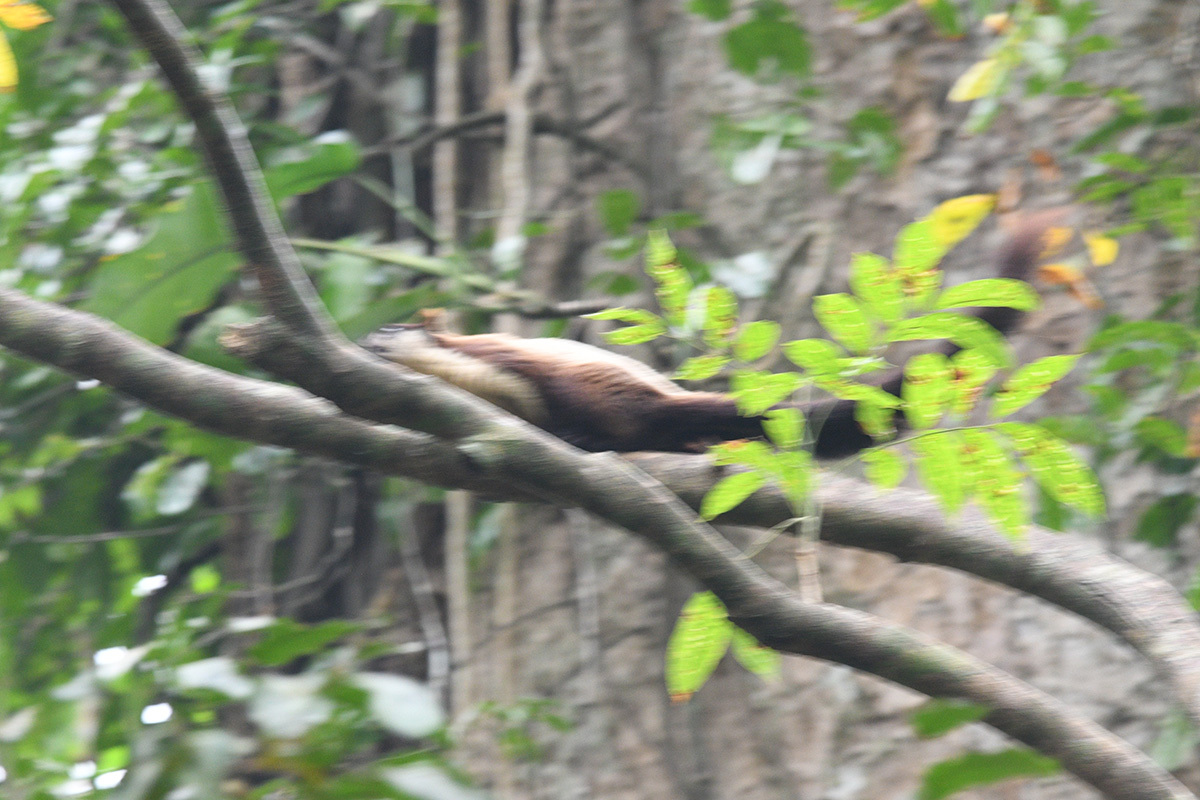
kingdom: Animalia
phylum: Chordata
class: Mammalia
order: Rodentia
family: Sciuridae
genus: Ratufa
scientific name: Ratufa bicolor
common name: Black giant squirrel
